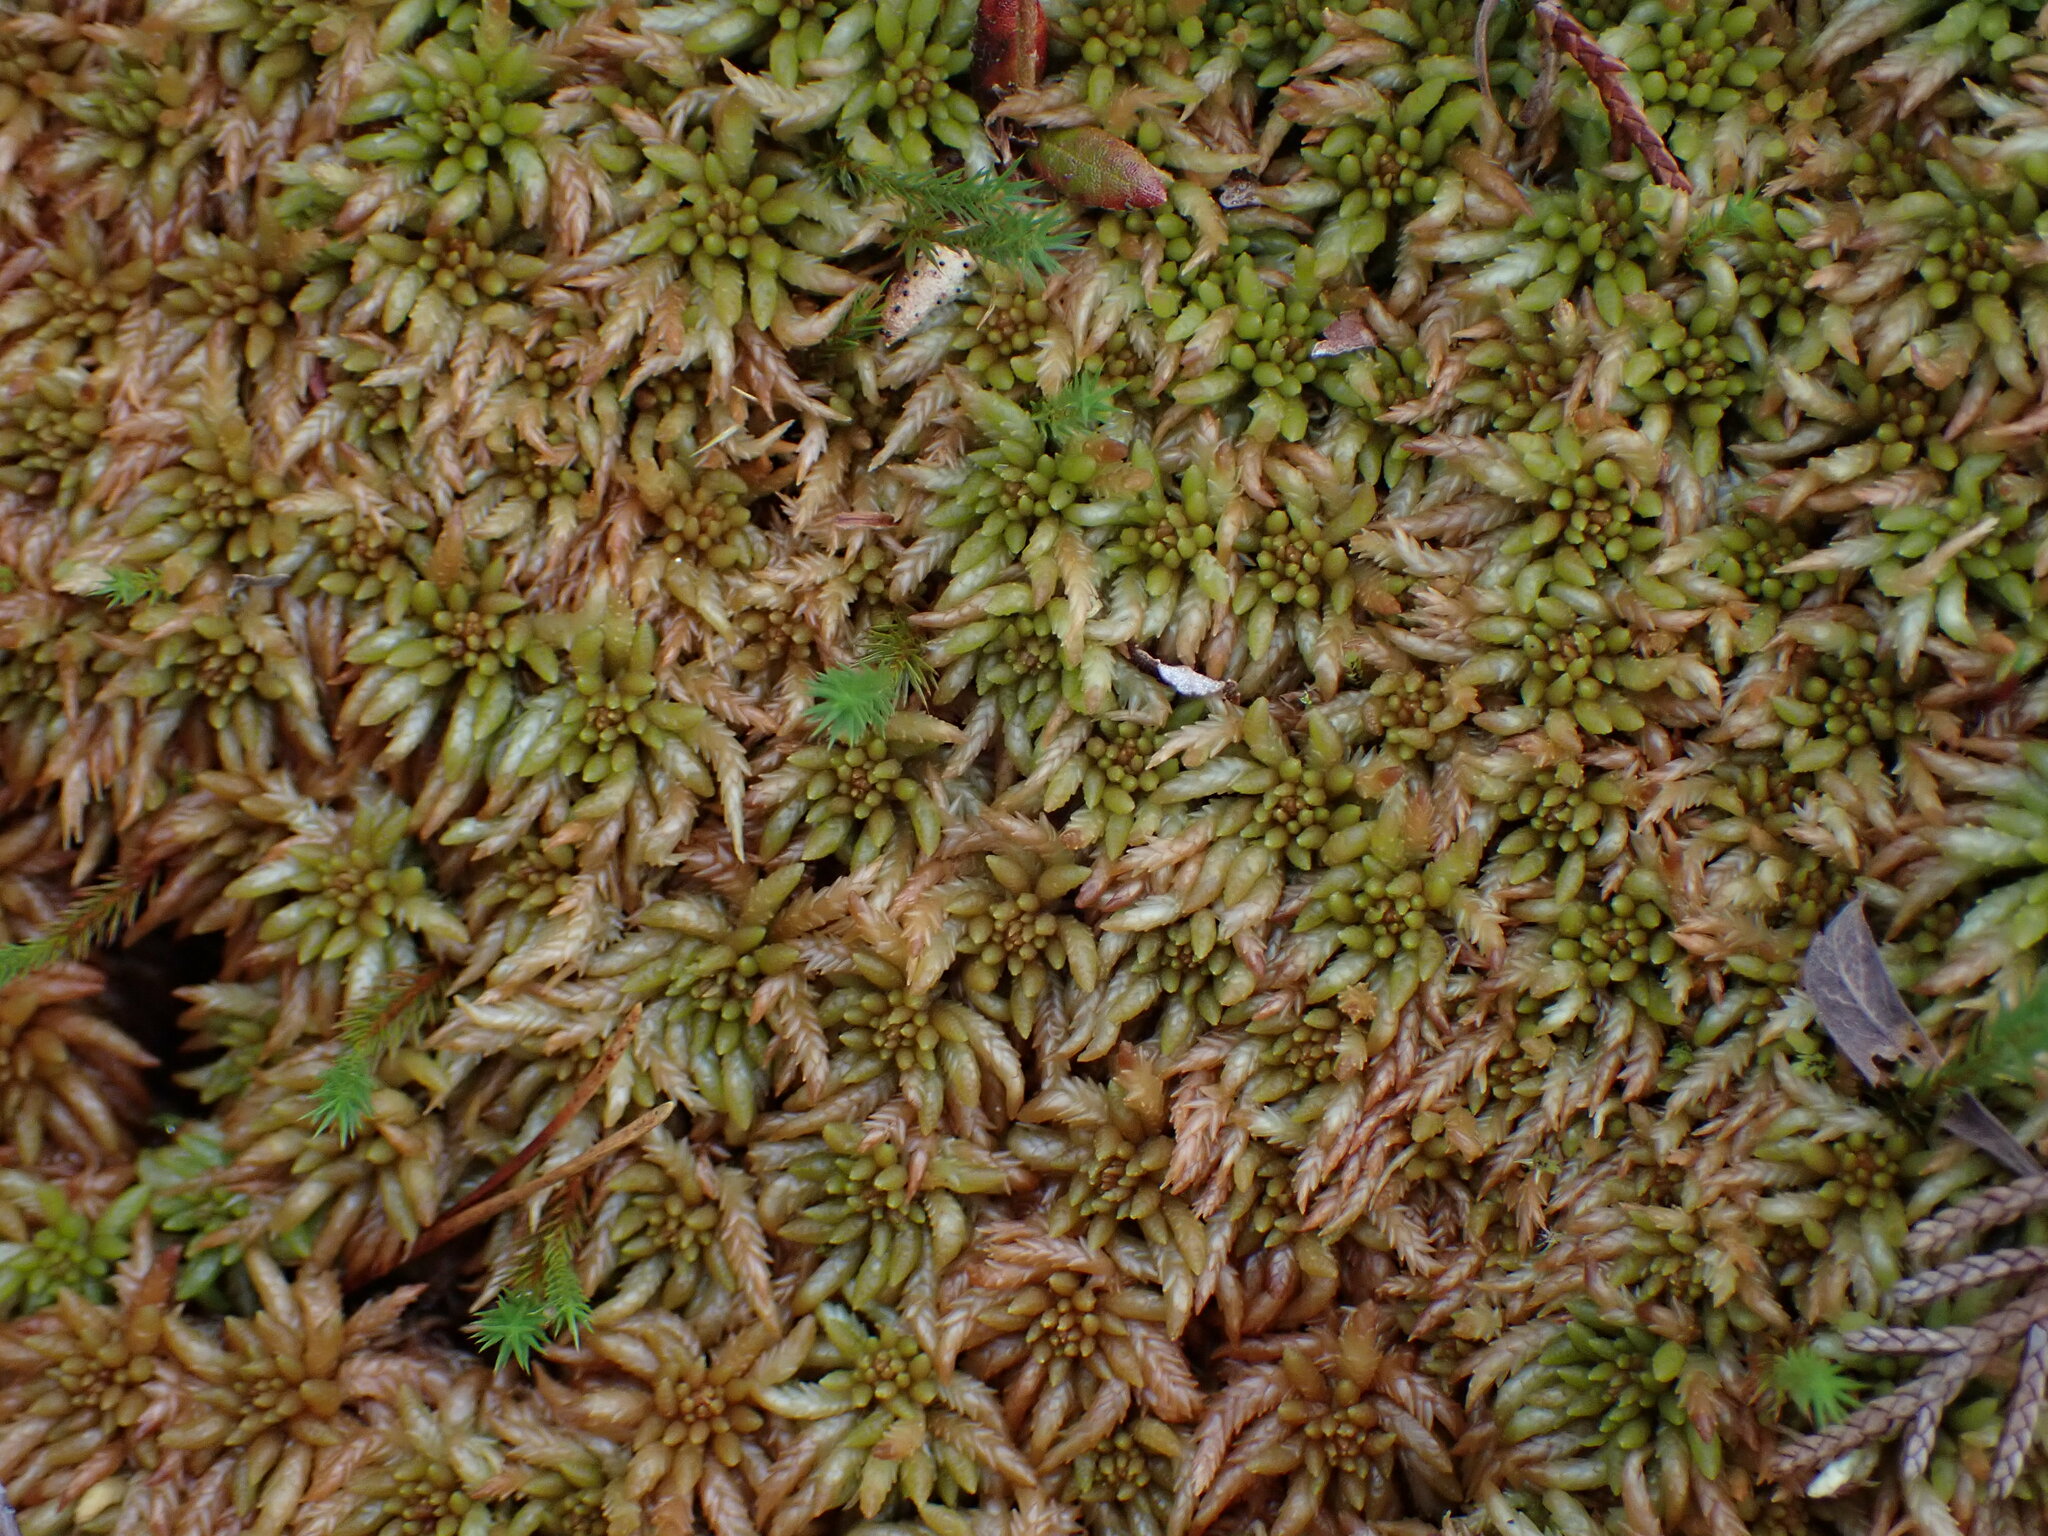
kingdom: Plantae
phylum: Bryophyta
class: Sphagnopsida
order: Sphagnales
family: Sphagnaceae
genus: Sphagnum
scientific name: Sphagnum austinii
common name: Austin's peat moss
